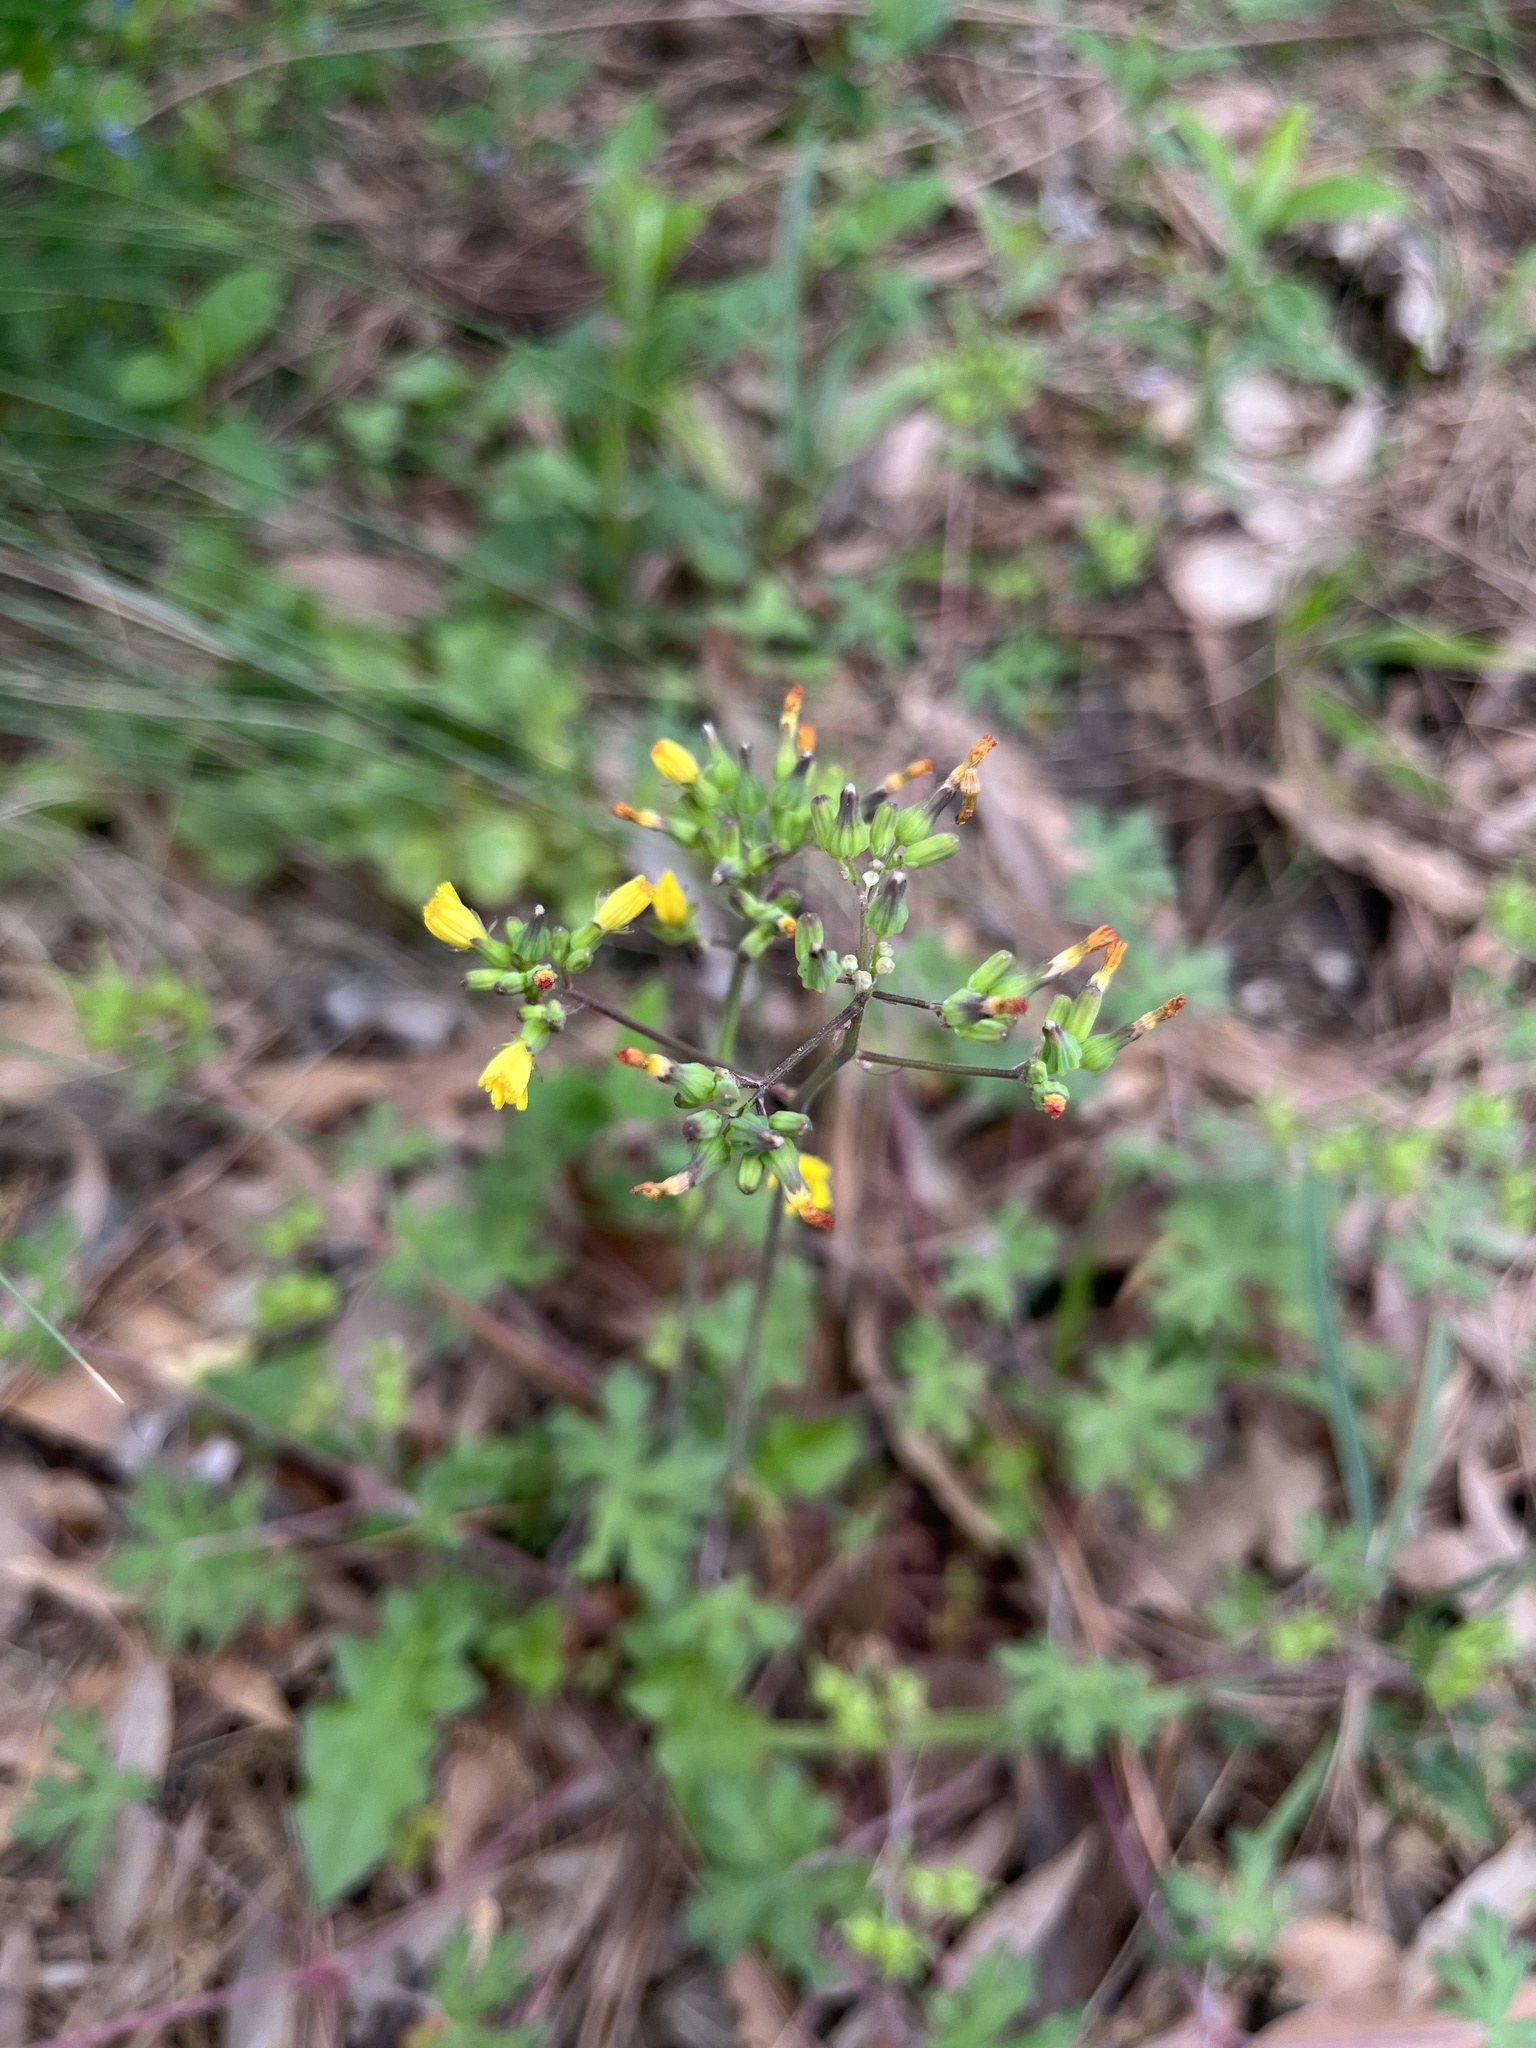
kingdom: Plantae
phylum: Tracheophyta
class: Magnoliopsida
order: Asterales
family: Asteraceae
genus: Youngia
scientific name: Youngia japonica
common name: Oriental false hawksbeard
